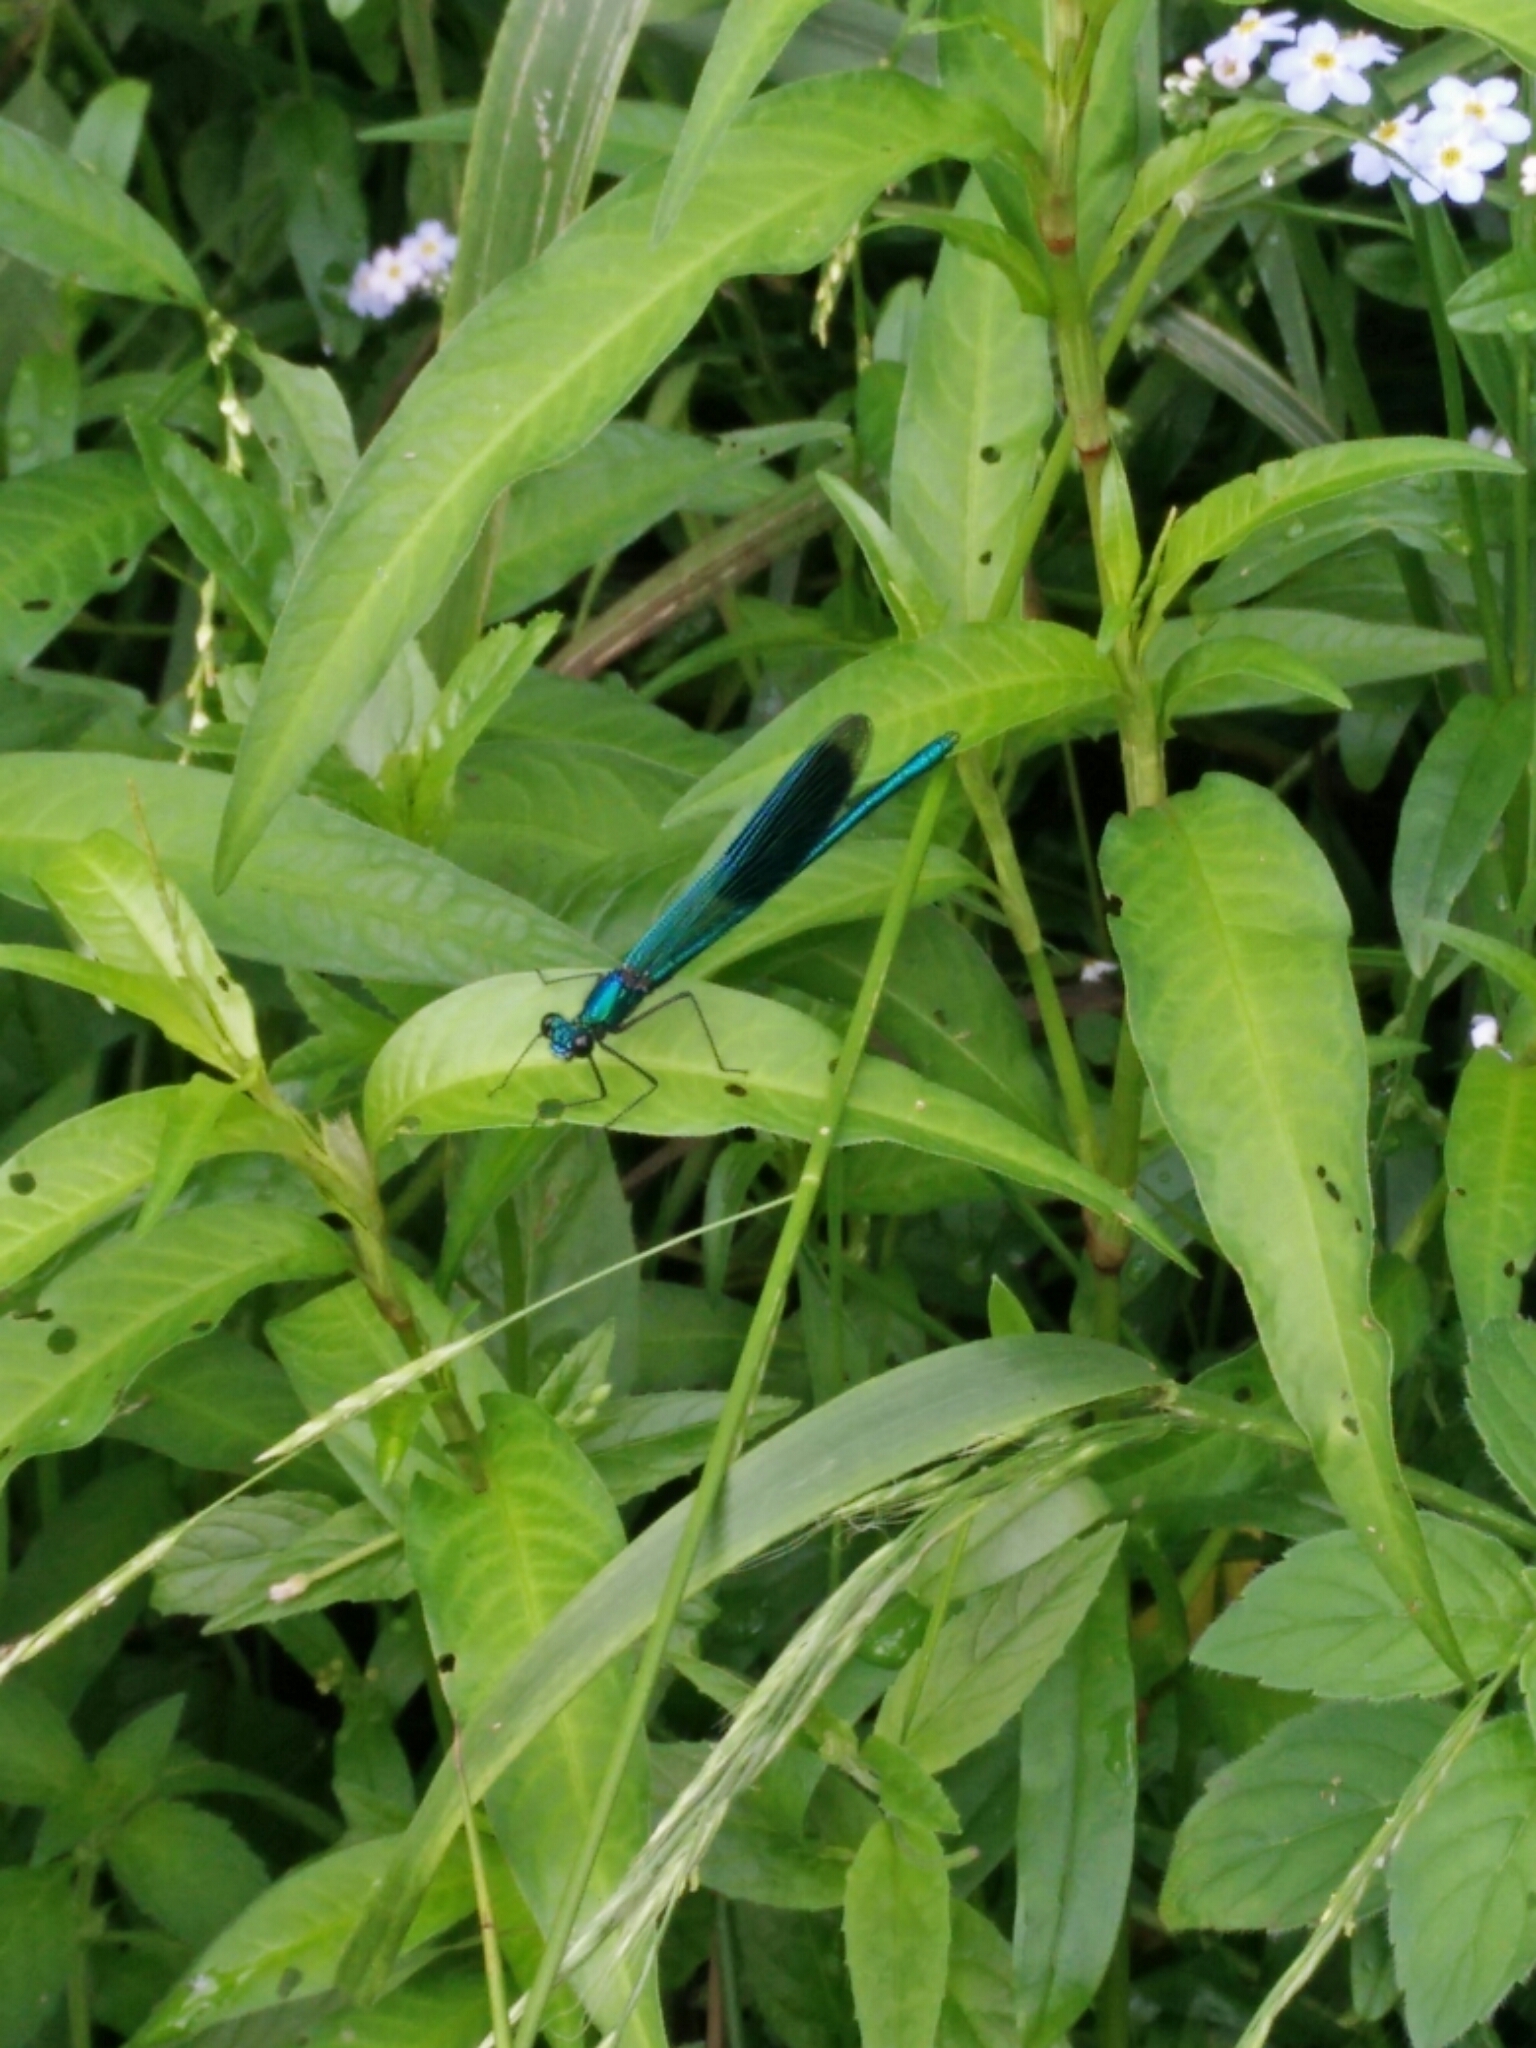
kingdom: Animalia
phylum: Arthropoda
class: Insecta
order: Odonata
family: Calopterygidae
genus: Calopteryx
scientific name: Calopteryx splendens
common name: Banded demoiselle
